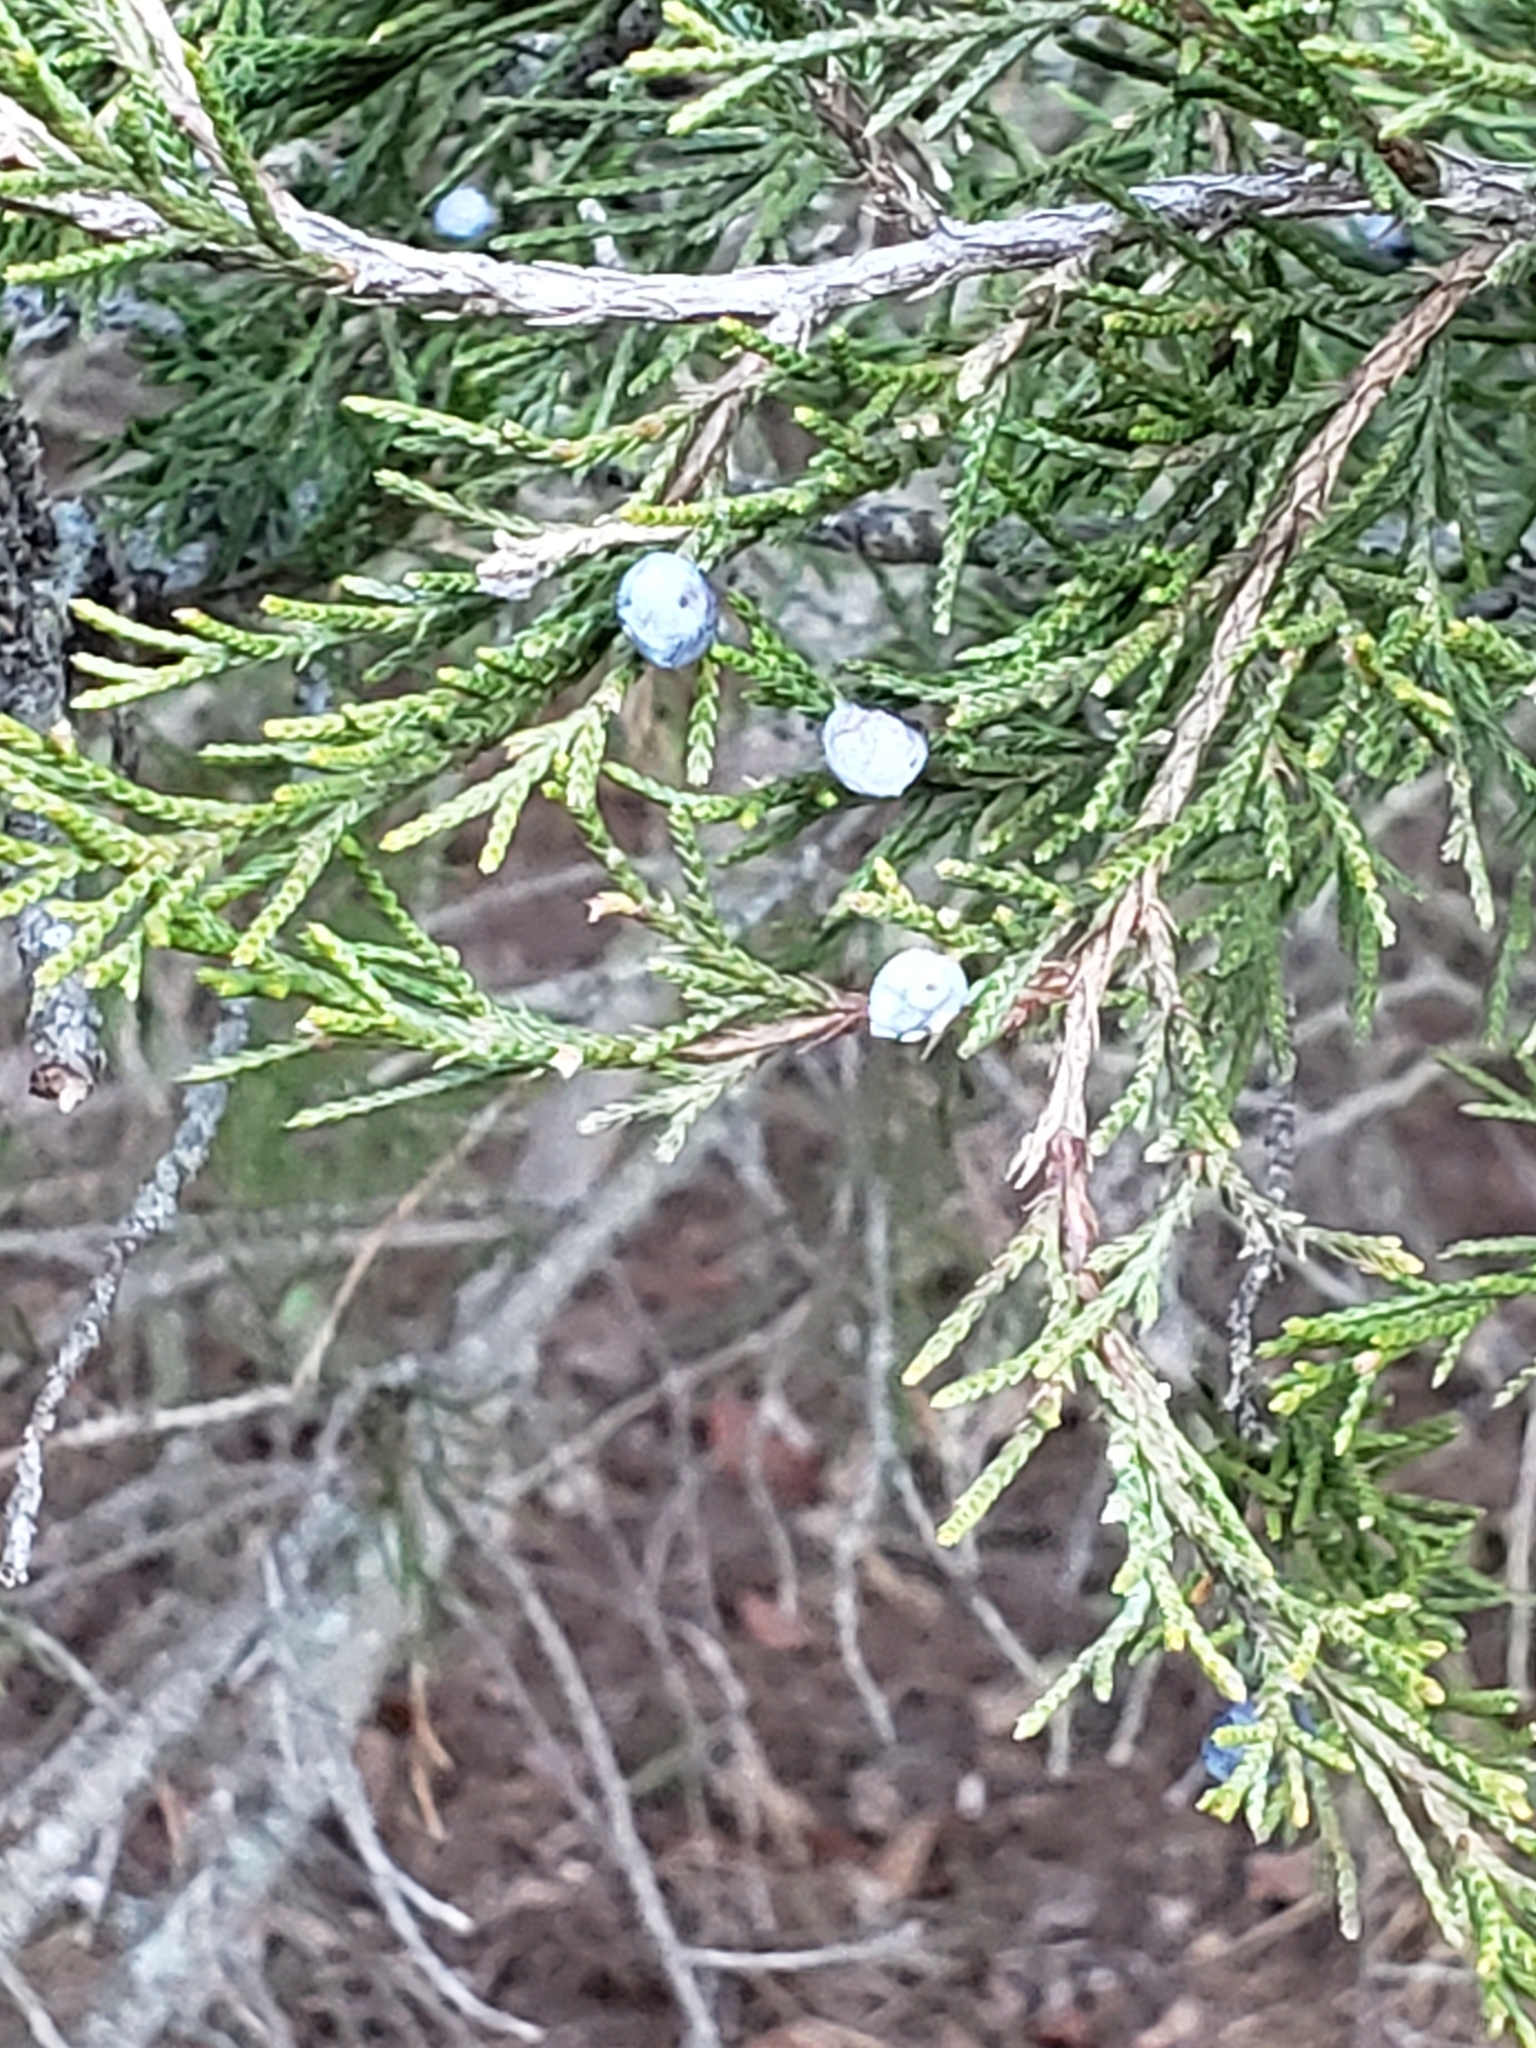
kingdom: Plantae
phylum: Tracheophyta
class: Pinopsida
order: Pinales
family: Cupressaceae
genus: Juniperus
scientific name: Juniperus virginiana
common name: Red juniper
